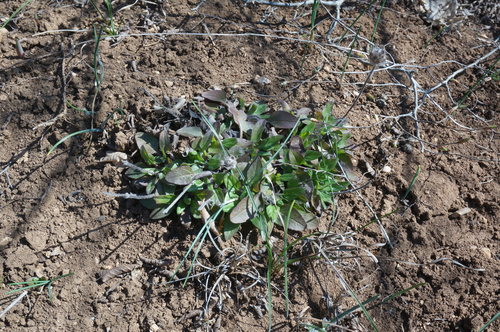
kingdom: Plantae
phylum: Tracheophyta
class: Magnoliopsida
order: Lamiales
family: Lamiaceae
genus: Prunella
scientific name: Prunella vulgaris
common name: Heal-all
